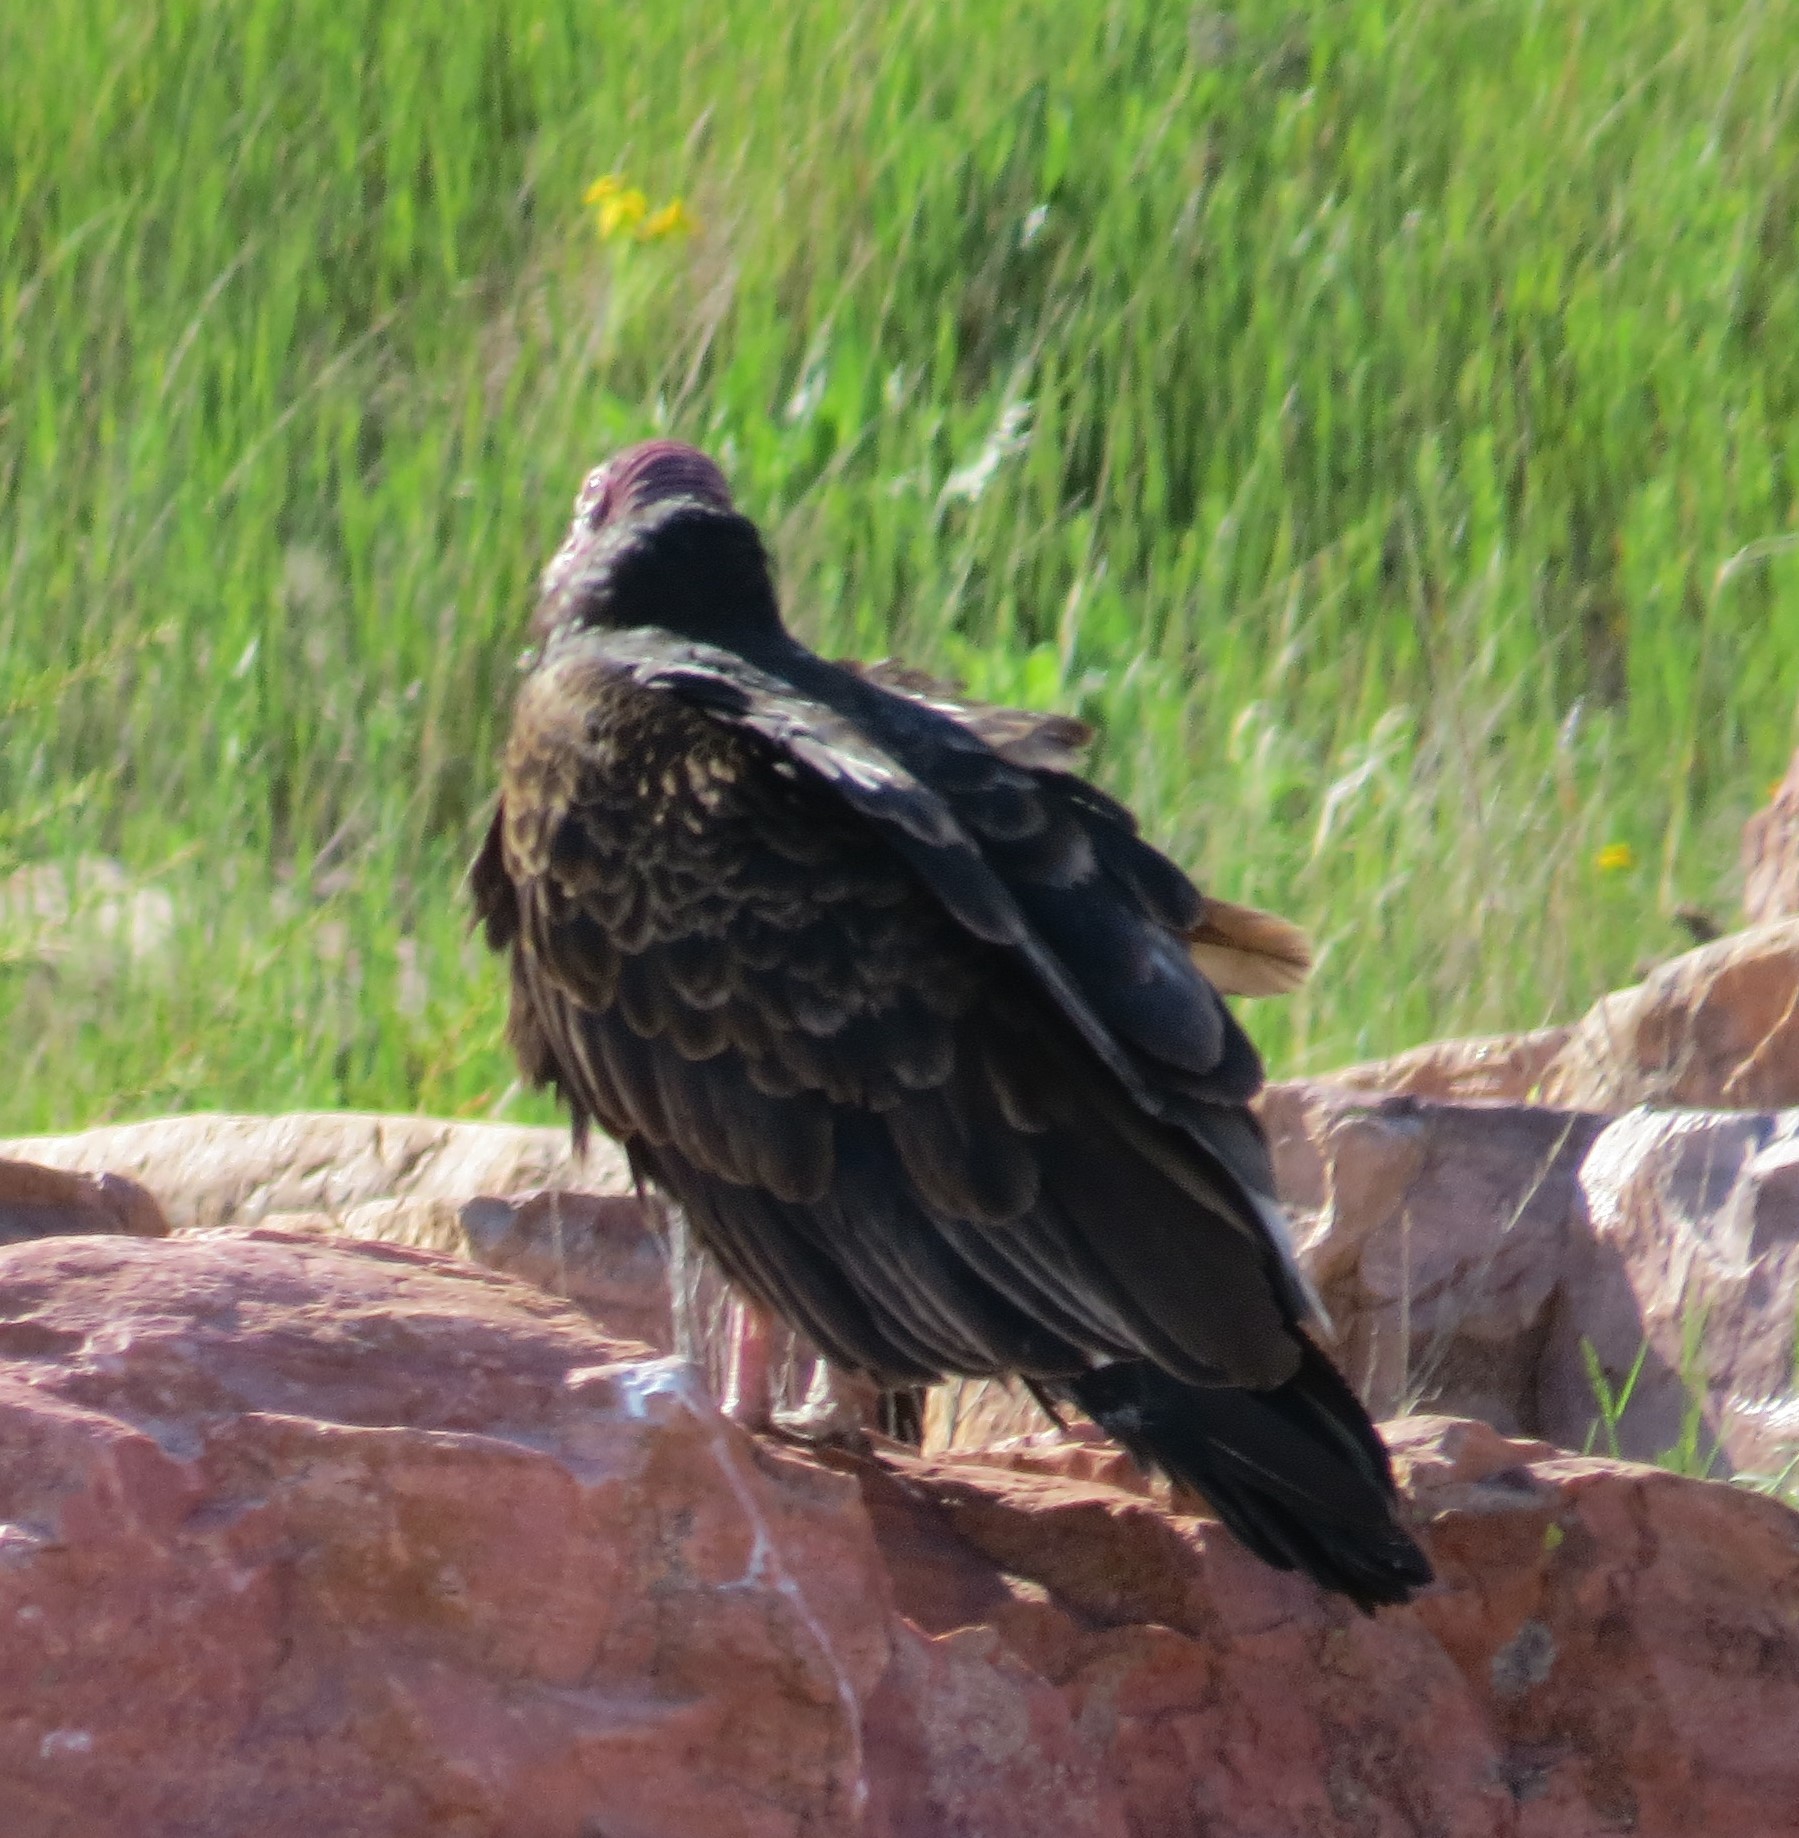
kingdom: Animalia
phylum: Chordata
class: Aves
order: Accipitriformes
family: Cathartidae
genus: Cathartes
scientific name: Cathartes aura
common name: Turkey vulture
